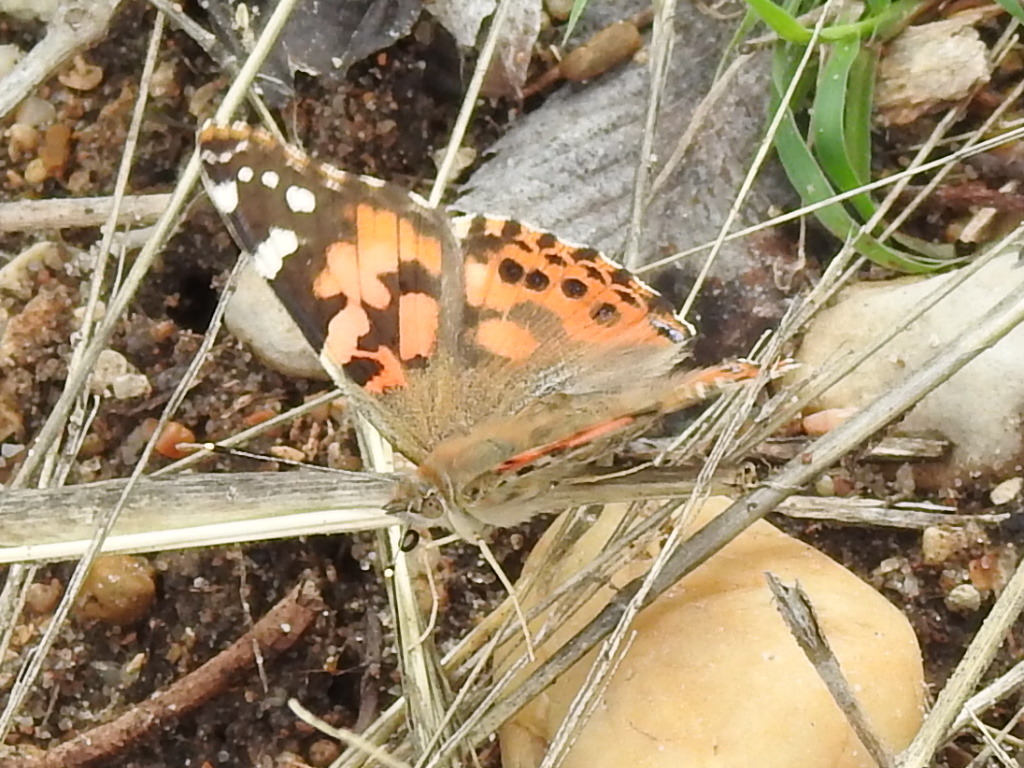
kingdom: Animalia
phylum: Arthropoda
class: Insecta
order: Lepidoptera
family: Nymphalidae
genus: Vanessa
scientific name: Vanessa cardui
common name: Painted lady
